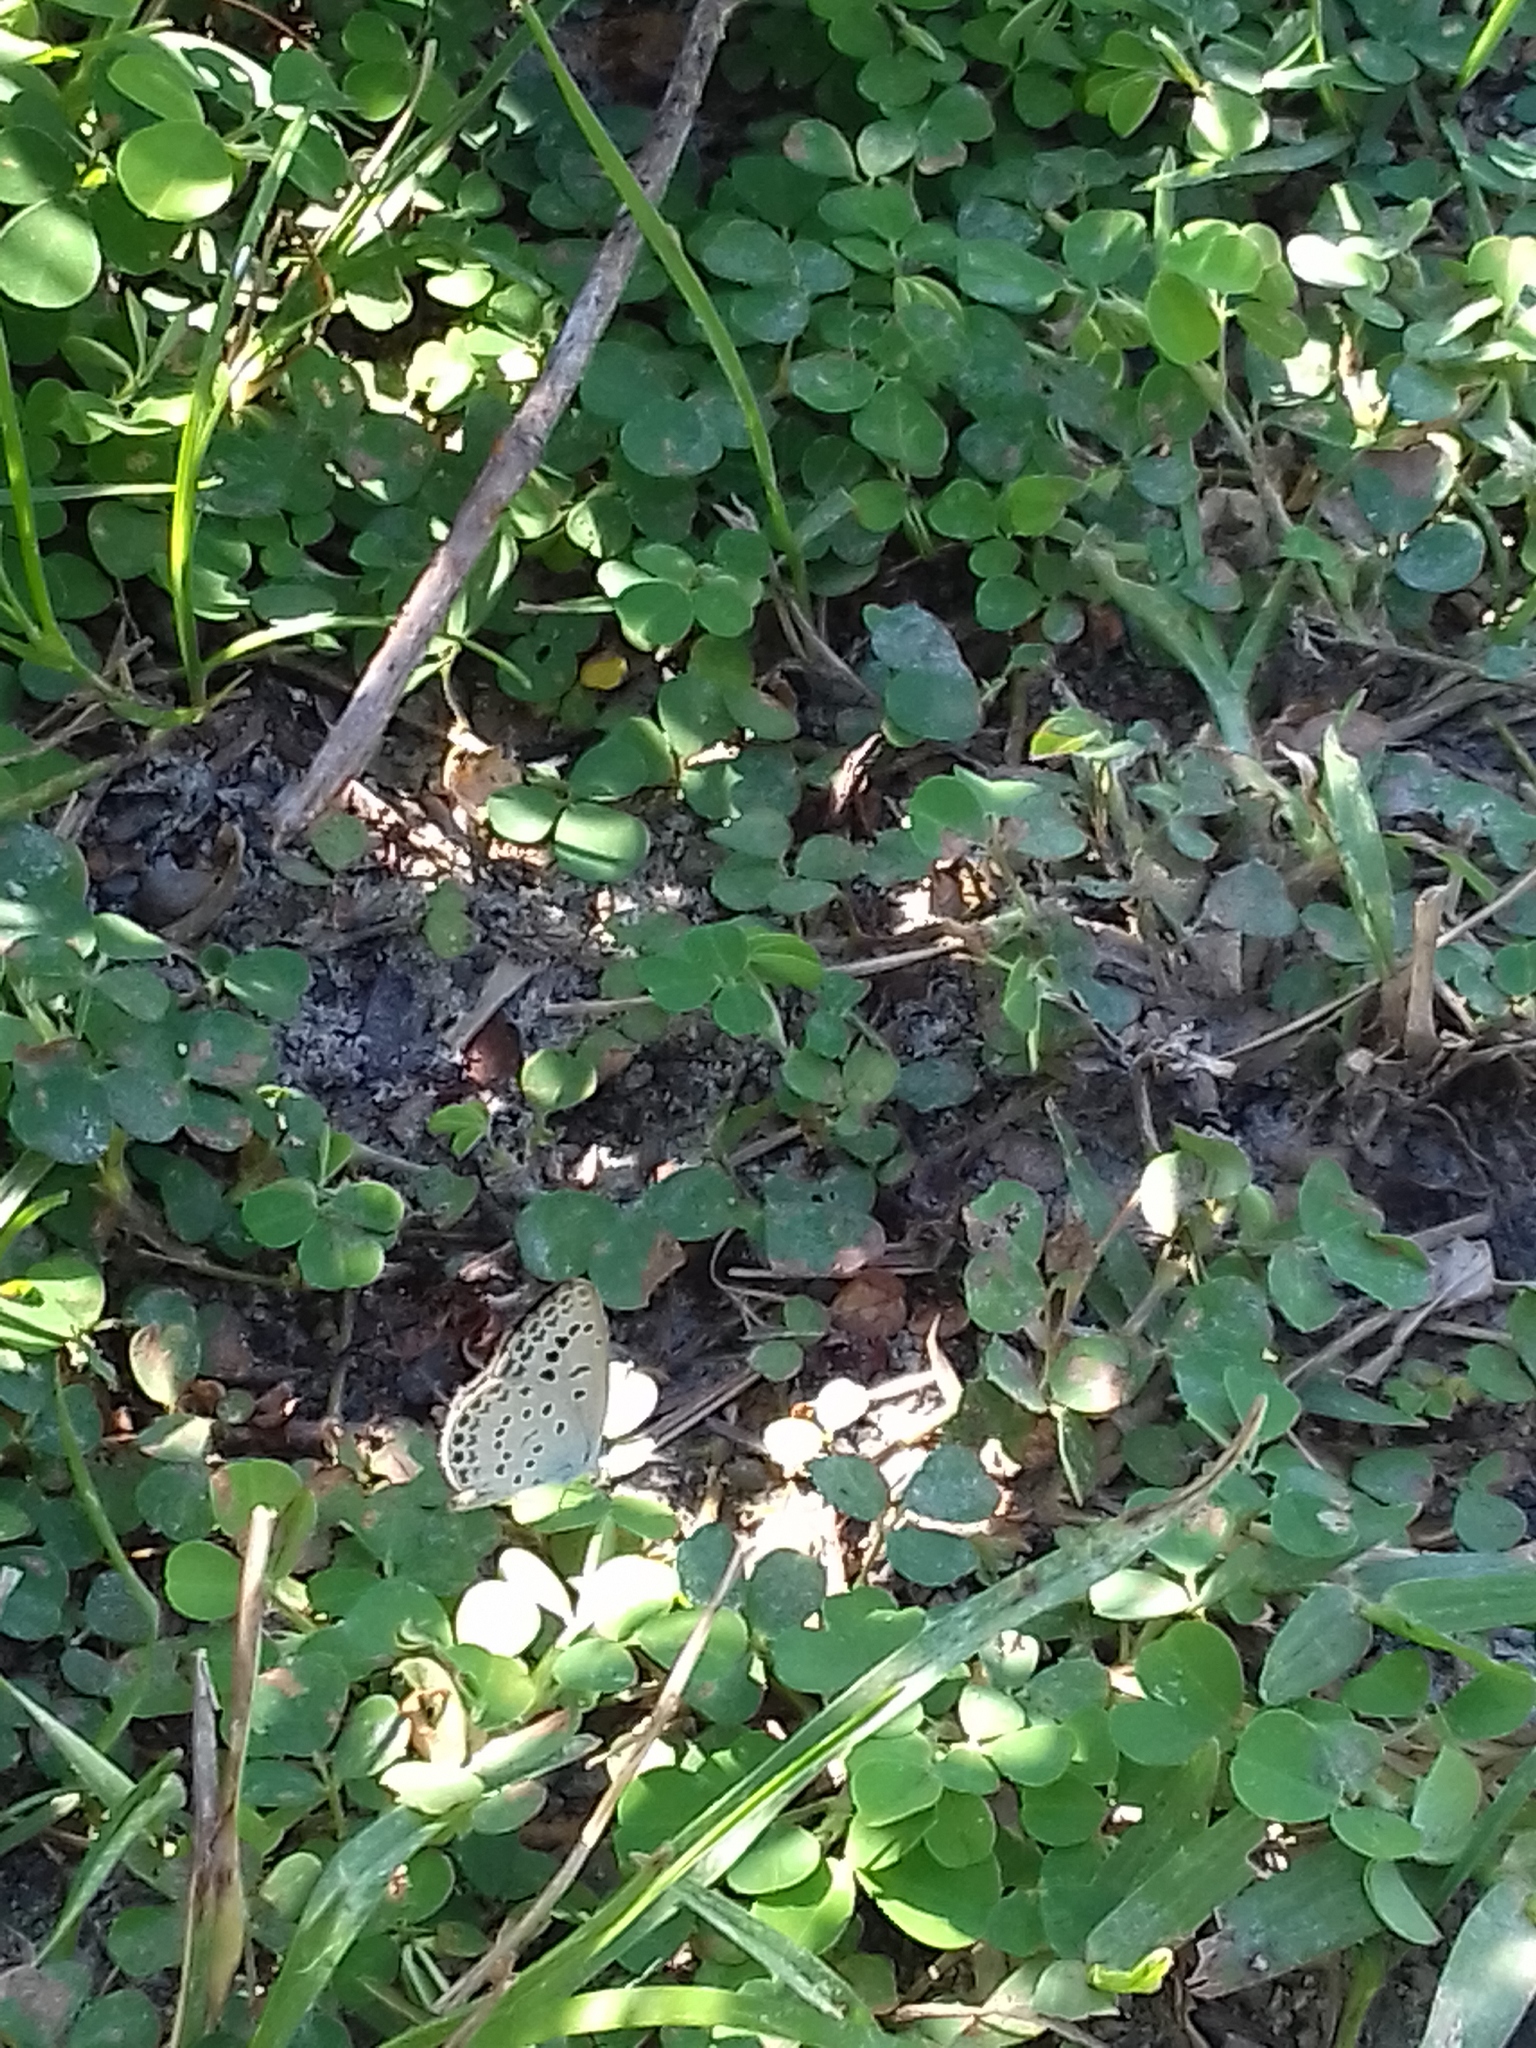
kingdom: Animalia
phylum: Arthropoda
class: Insecta
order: Lepidoptera
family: Lycaenidae
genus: Pseudozizeeria
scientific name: Pseudozizeeria maha
